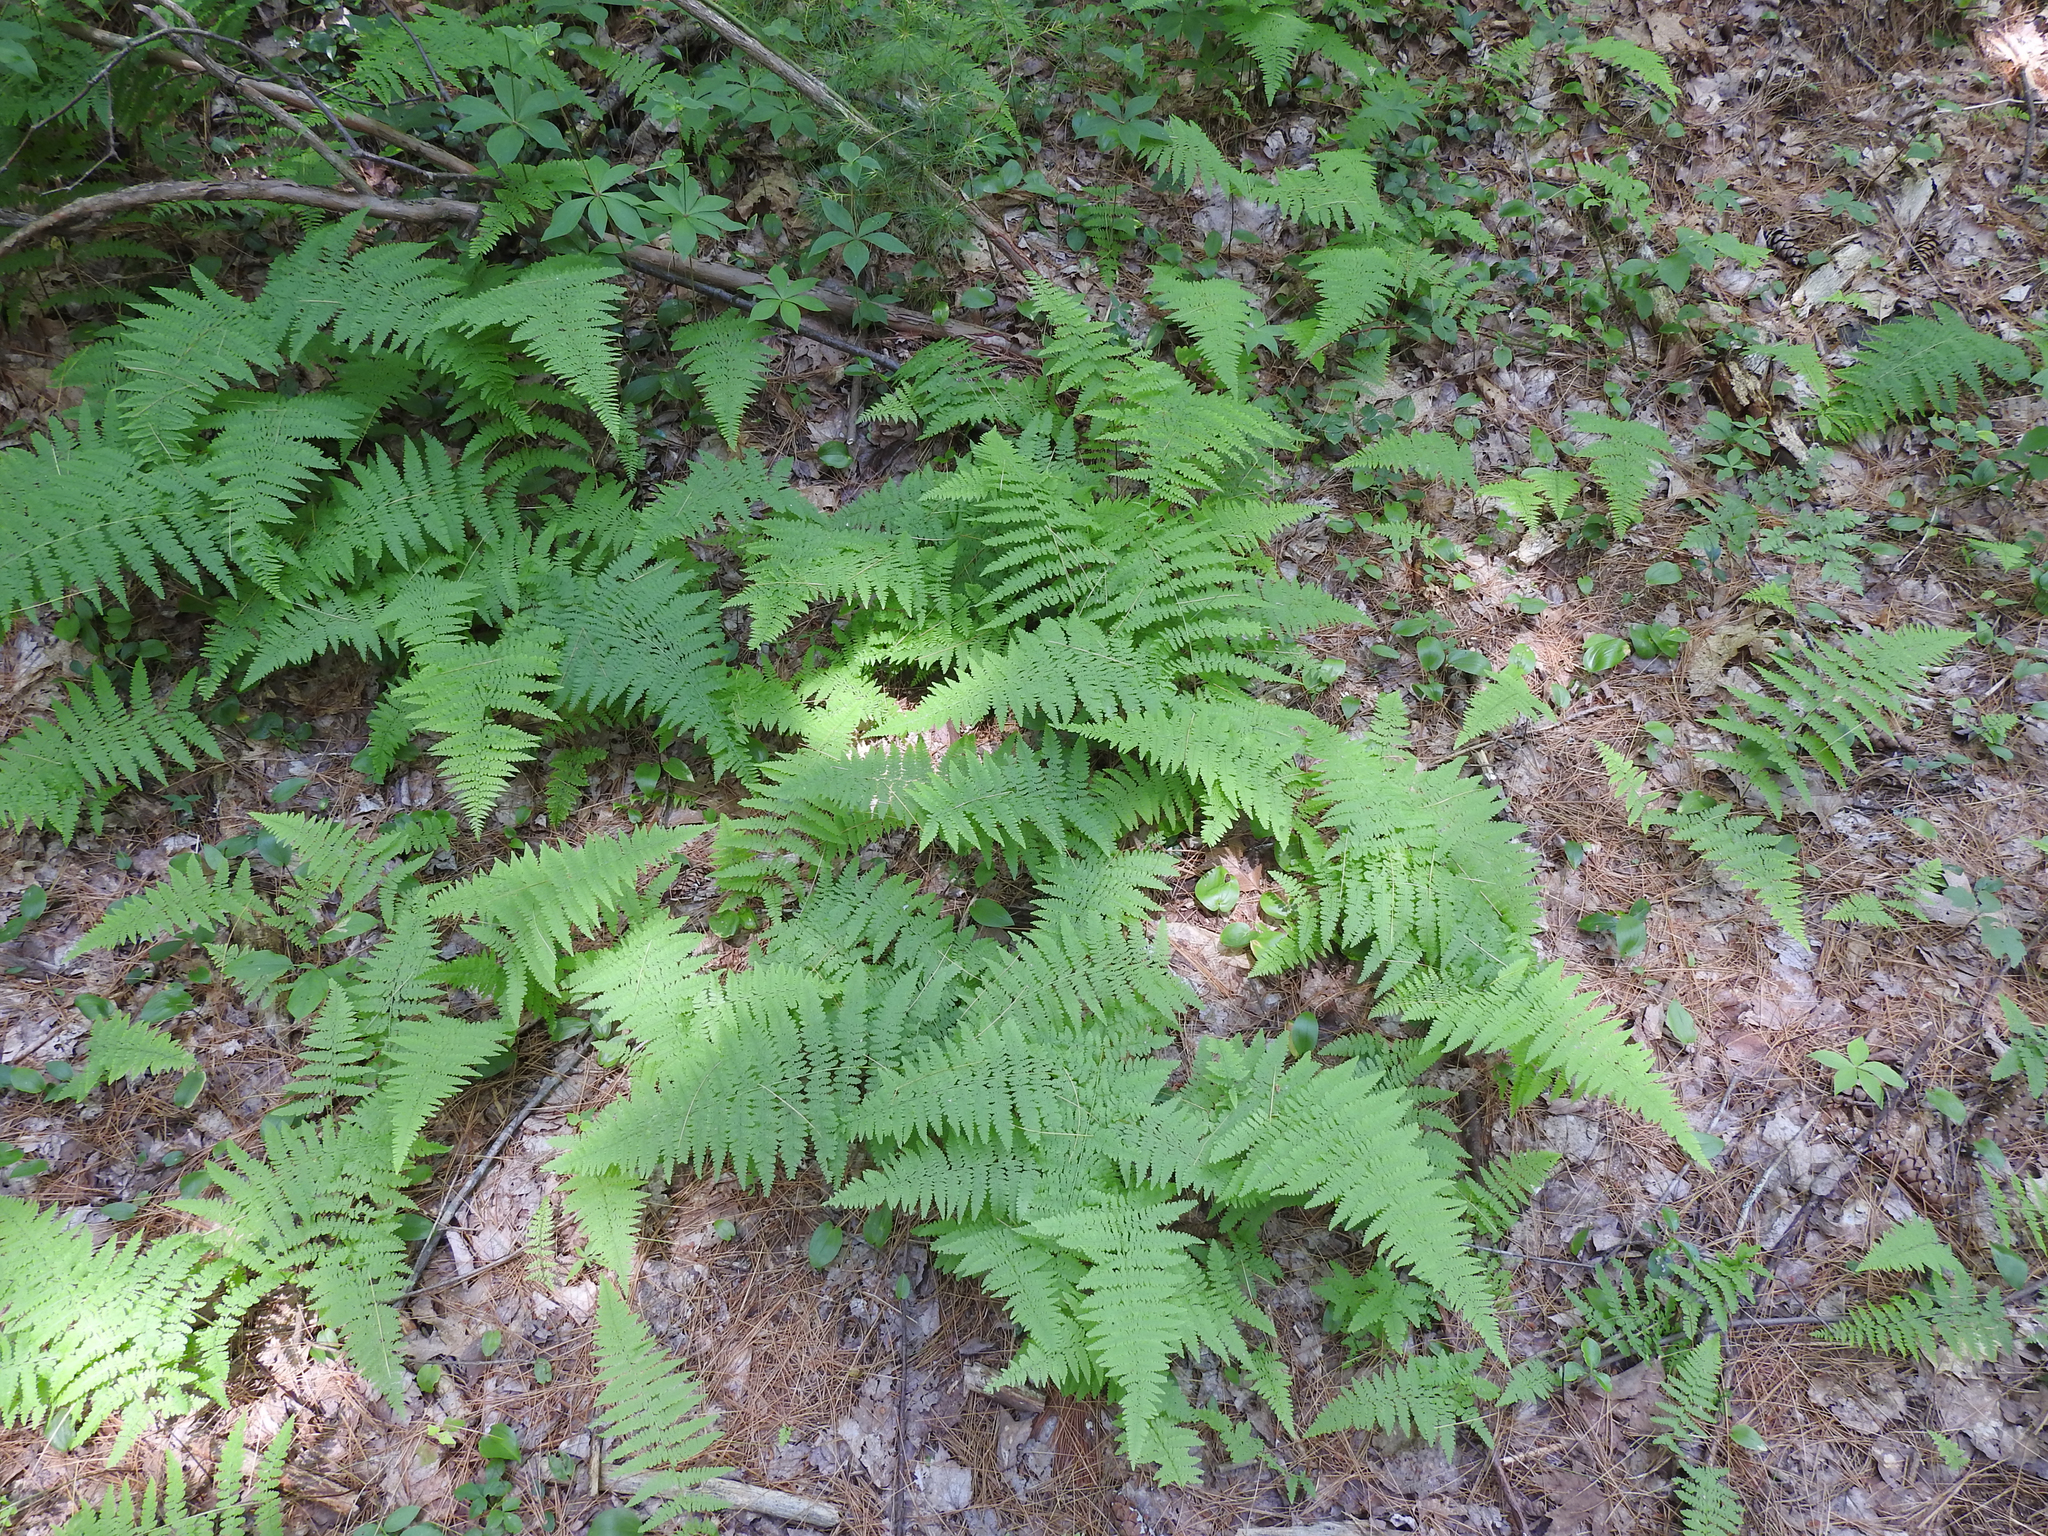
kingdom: Plantae
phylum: Tracheophyta
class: Polypodiopsida
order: Polypodiales
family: Dennstaedtiaceae
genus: Sitobolium
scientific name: Sitobolium punctilobum
